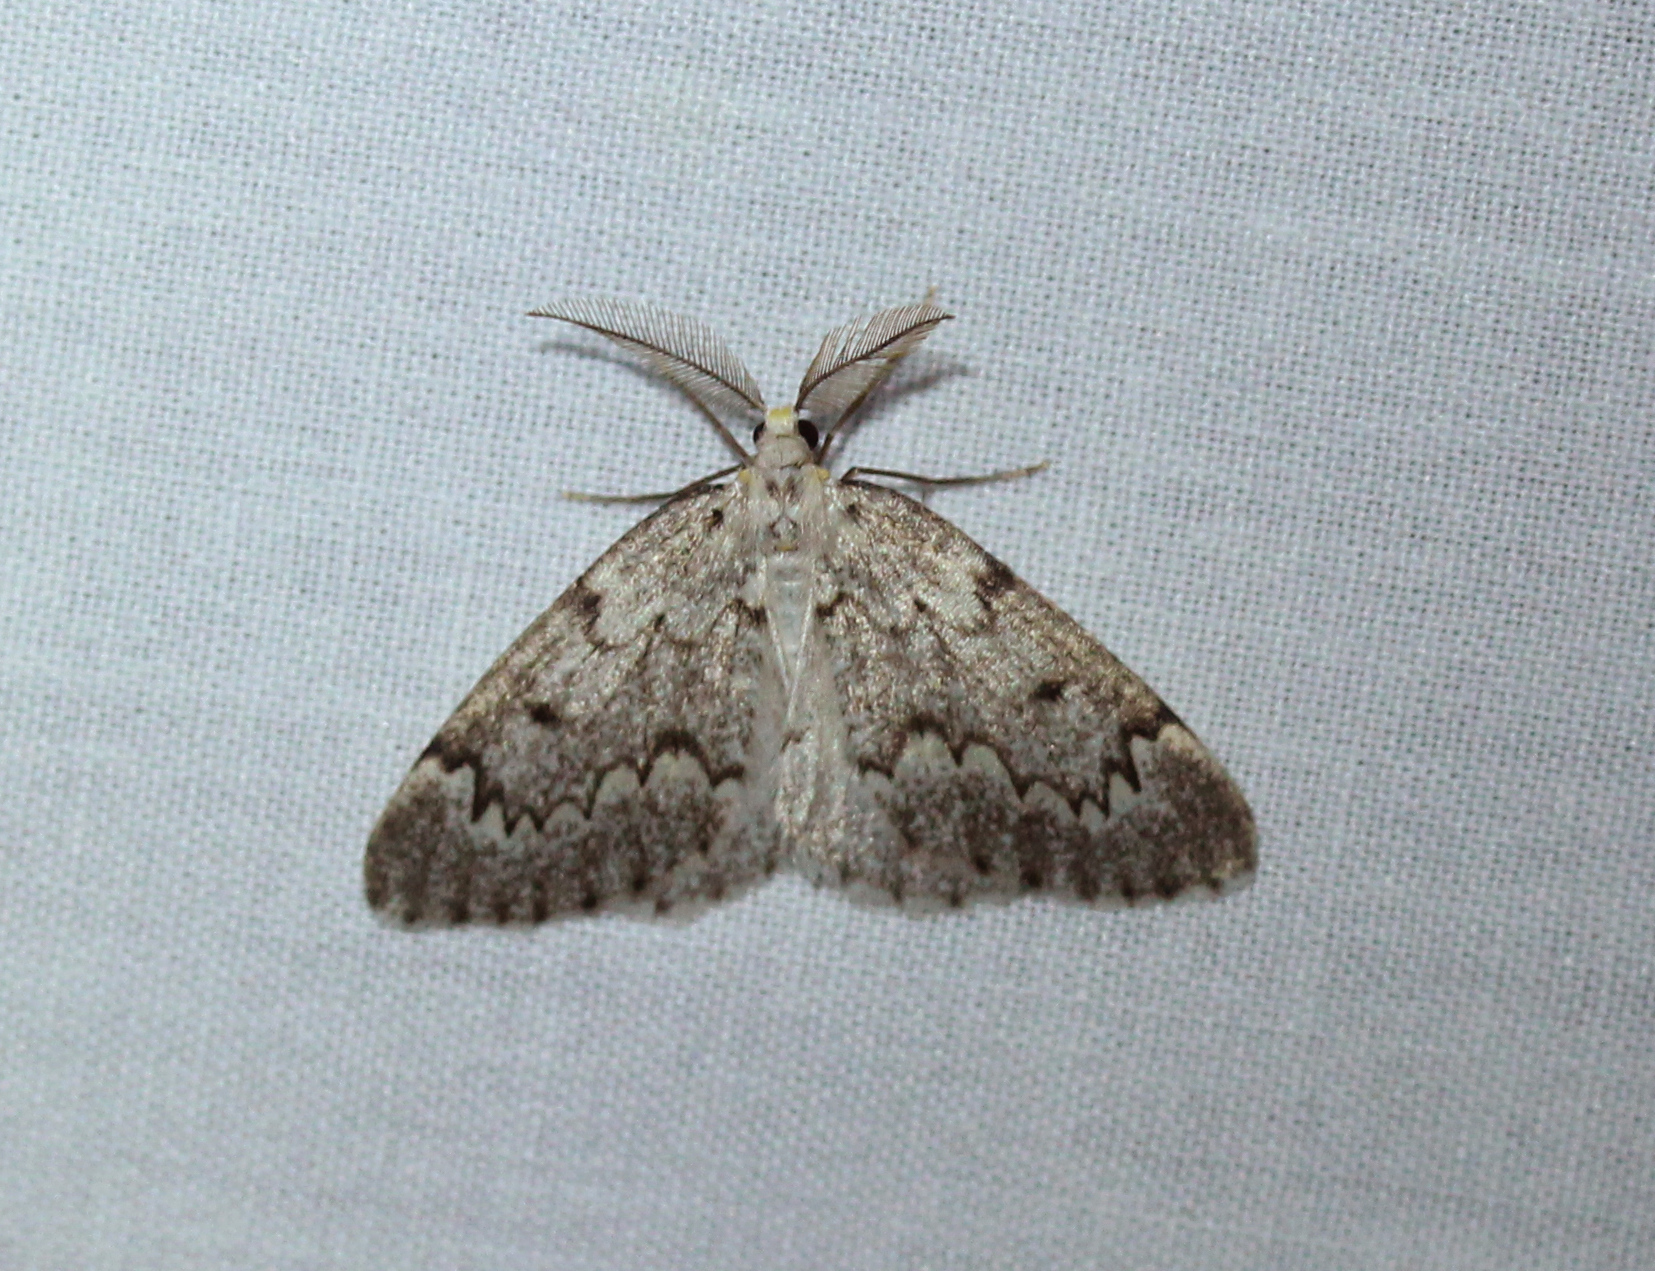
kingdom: Animalia
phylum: Arthropoda
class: Insecta
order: Lepidoptera
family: Geometridae
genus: Nepytia
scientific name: Nepytia canosaria
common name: False hemlock looper
